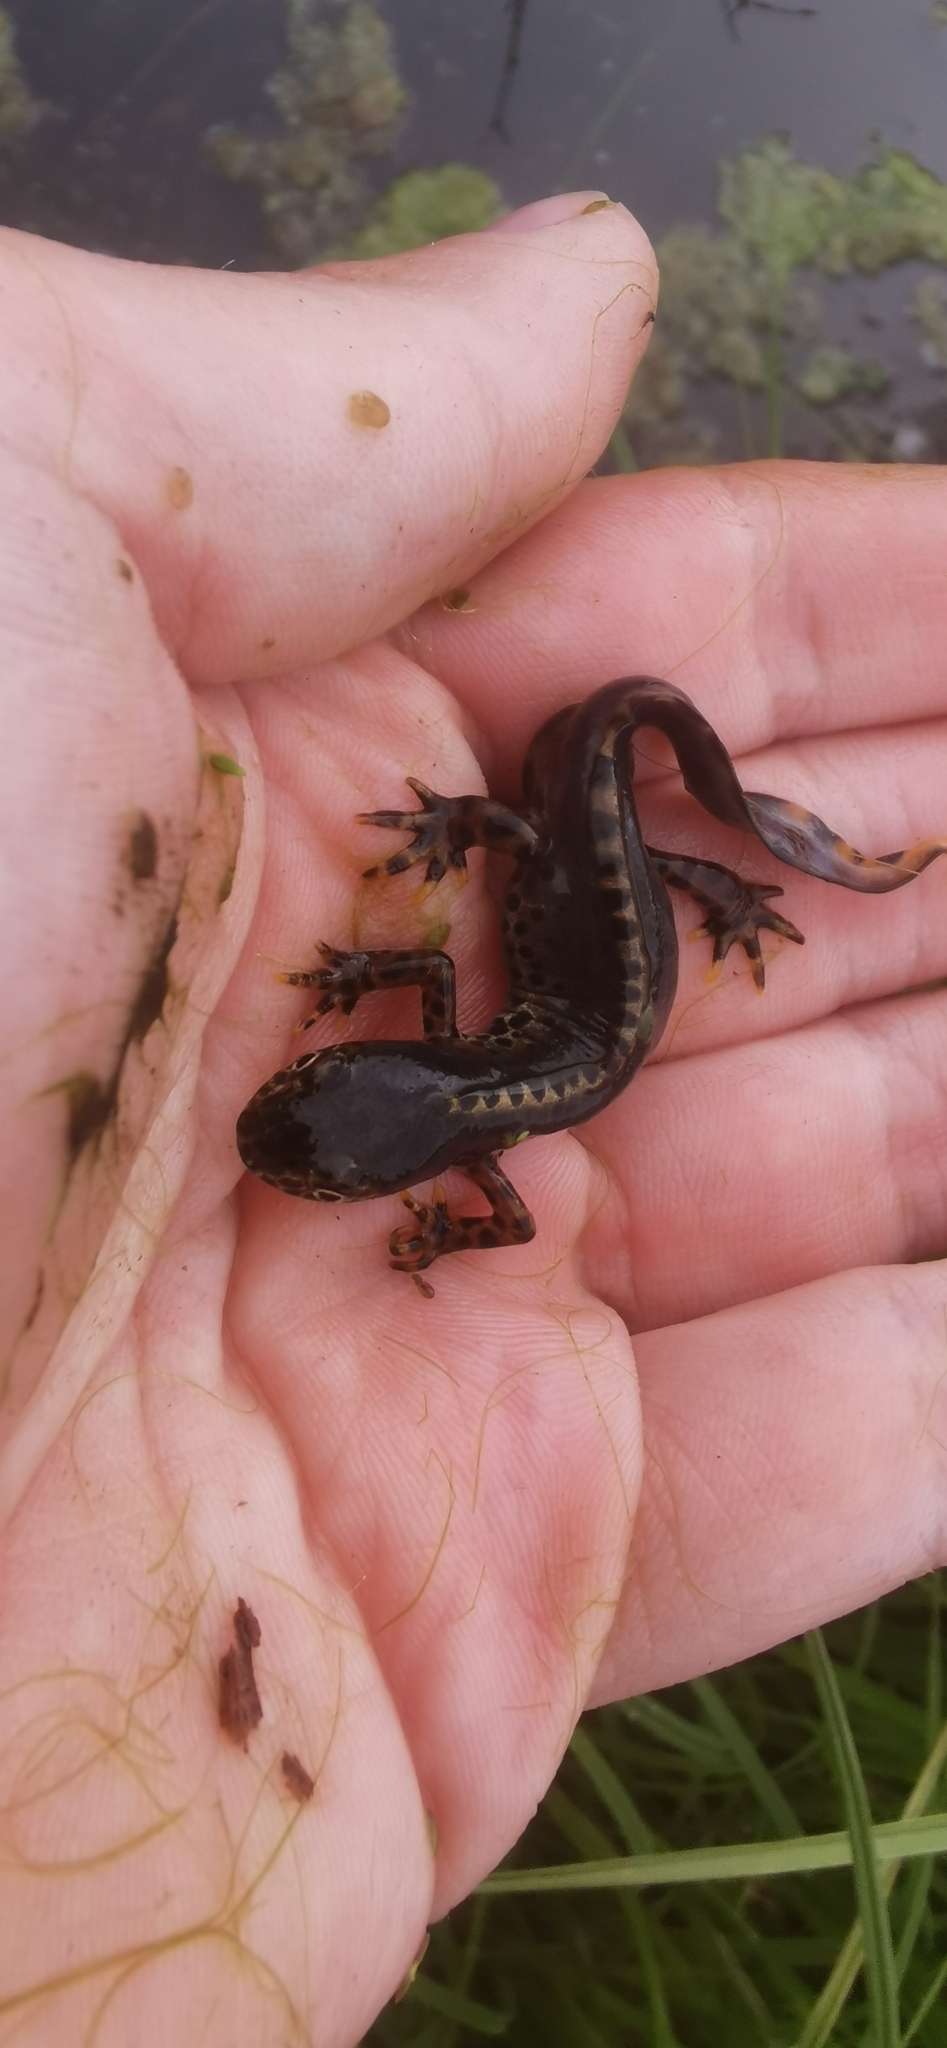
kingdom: Animalia
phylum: Chordata
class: Amphibia
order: Caudata
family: Salamandridae
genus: Ichthyosaura
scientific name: Ichthyosaura alpestris
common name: Alpine newt
